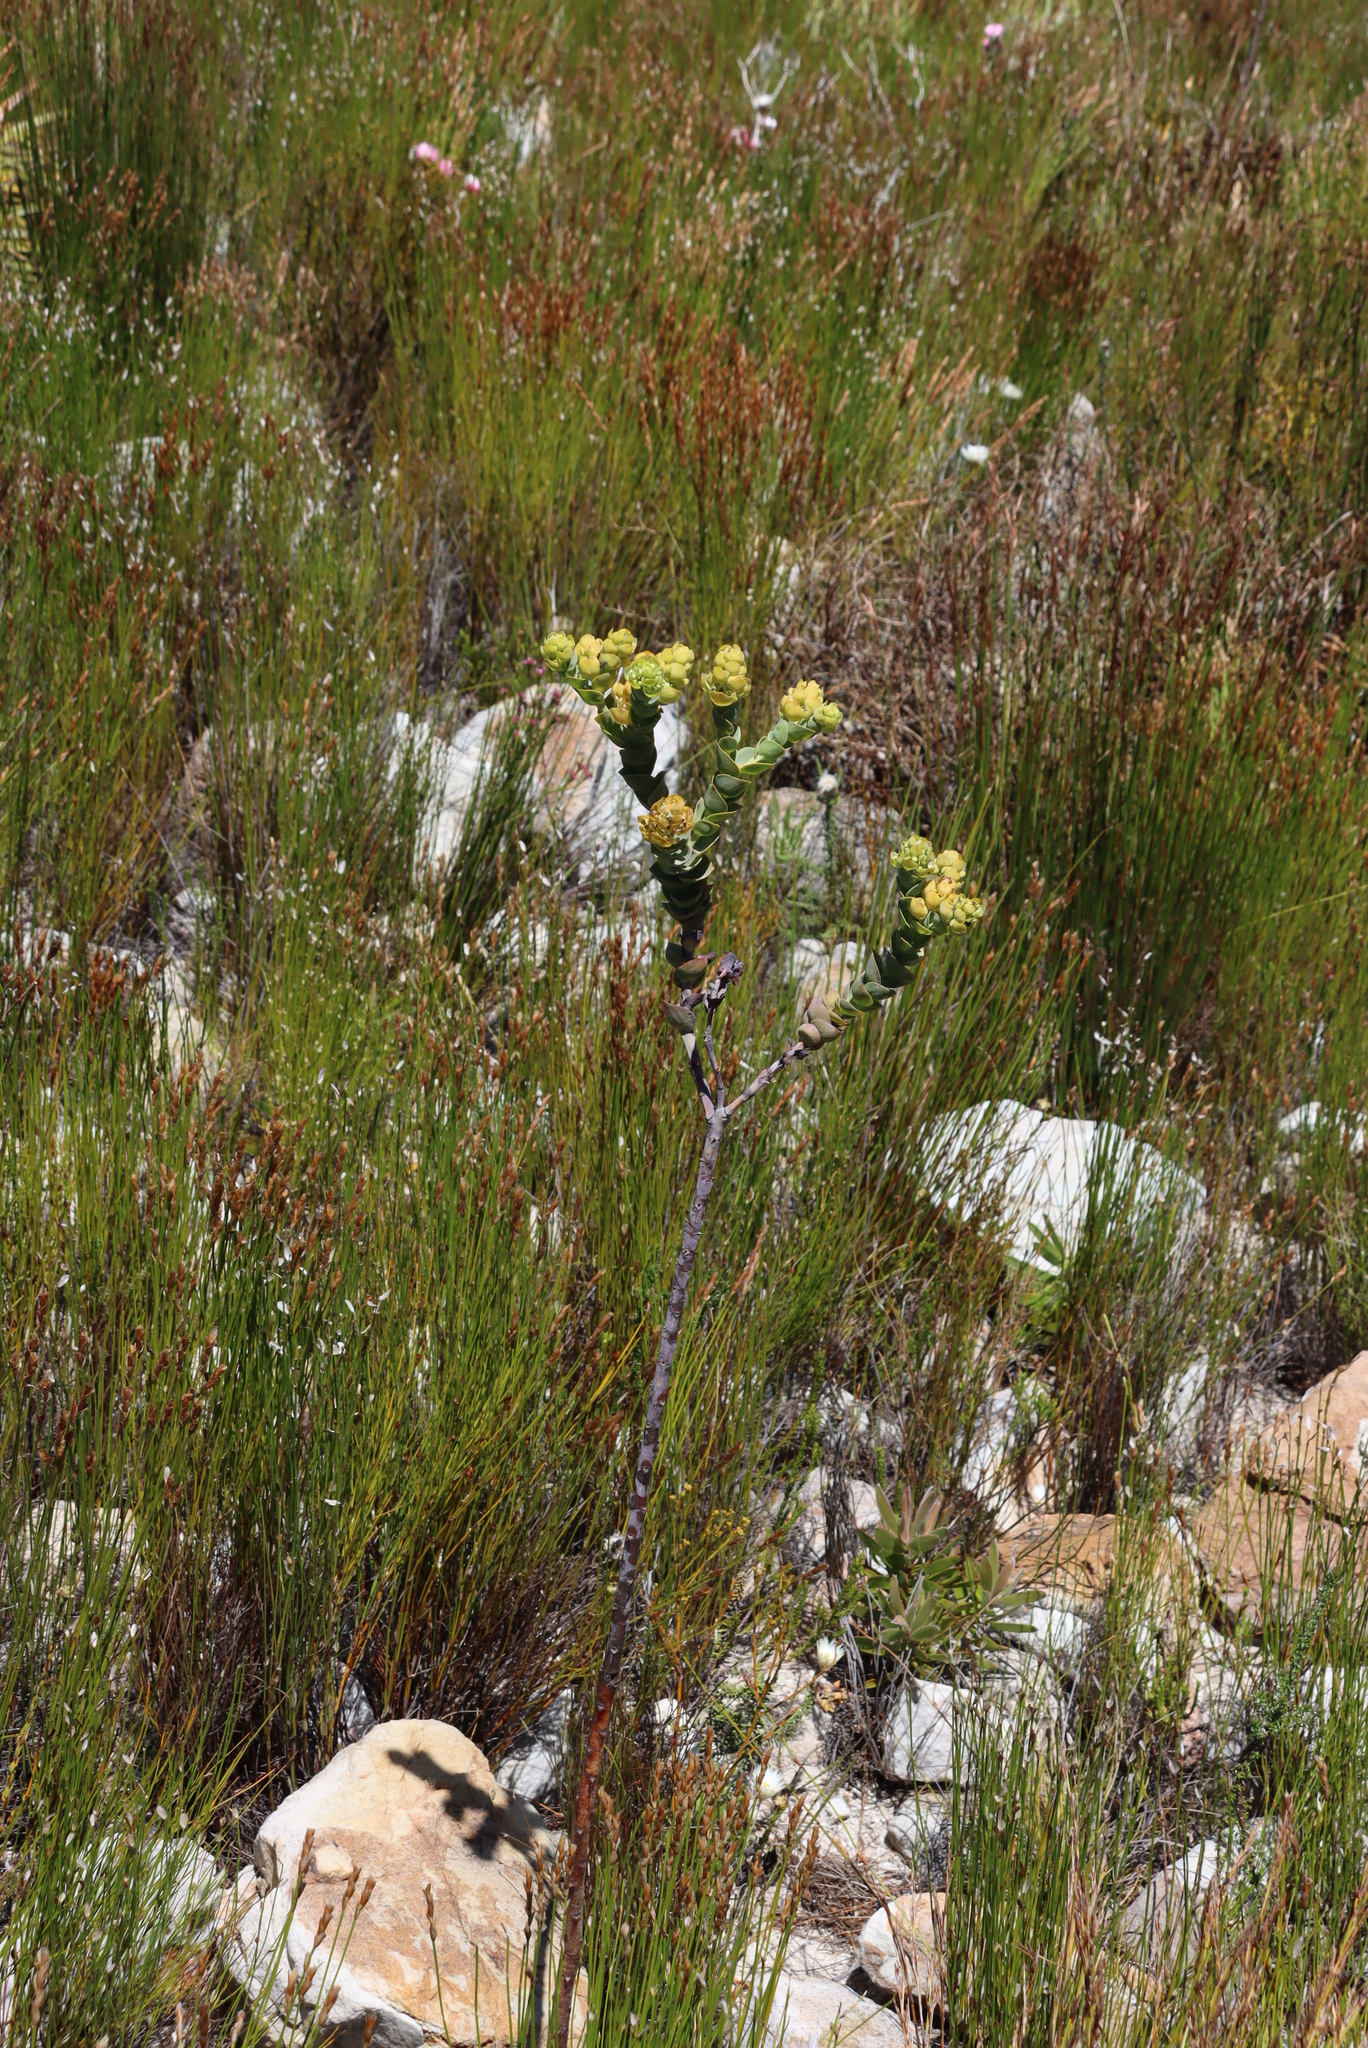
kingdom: Plantae
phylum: Tracheophyta
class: Magnoliopsida
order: Santalales
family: Thesiaceae
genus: Thesium
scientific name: Thesium euphorbioides
